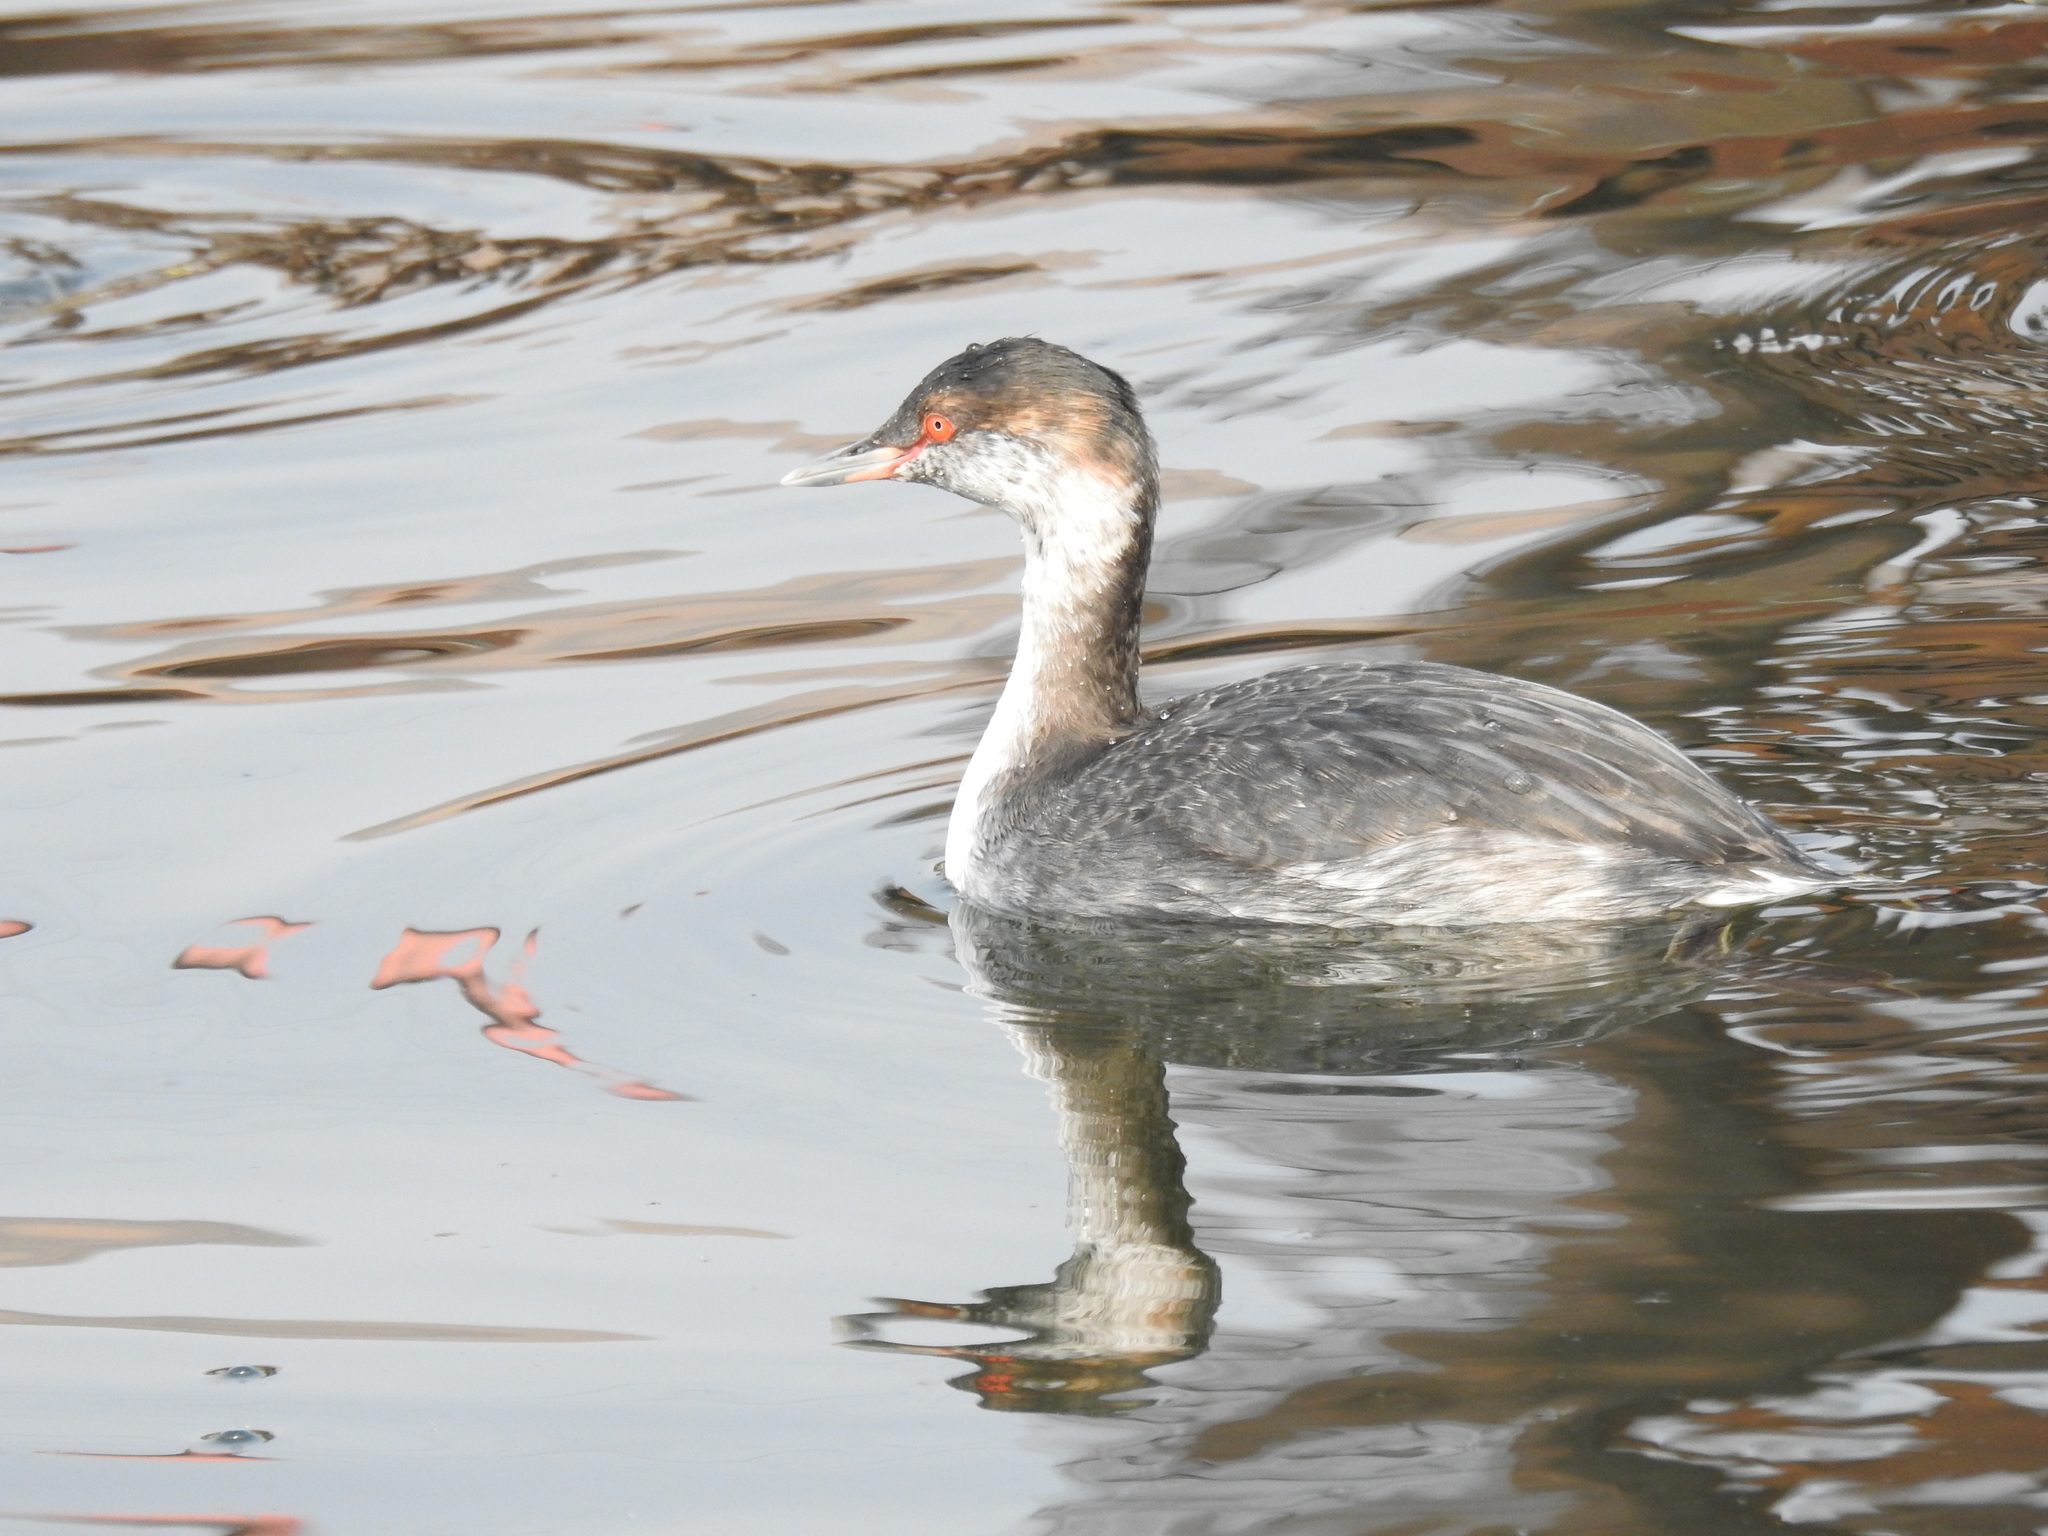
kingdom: Animalia
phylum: Chordata
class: Aves
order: Podicipediformes
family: Podicipedidae
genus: Podiceps
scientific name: Podiceps auritus
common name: Horned grebe
